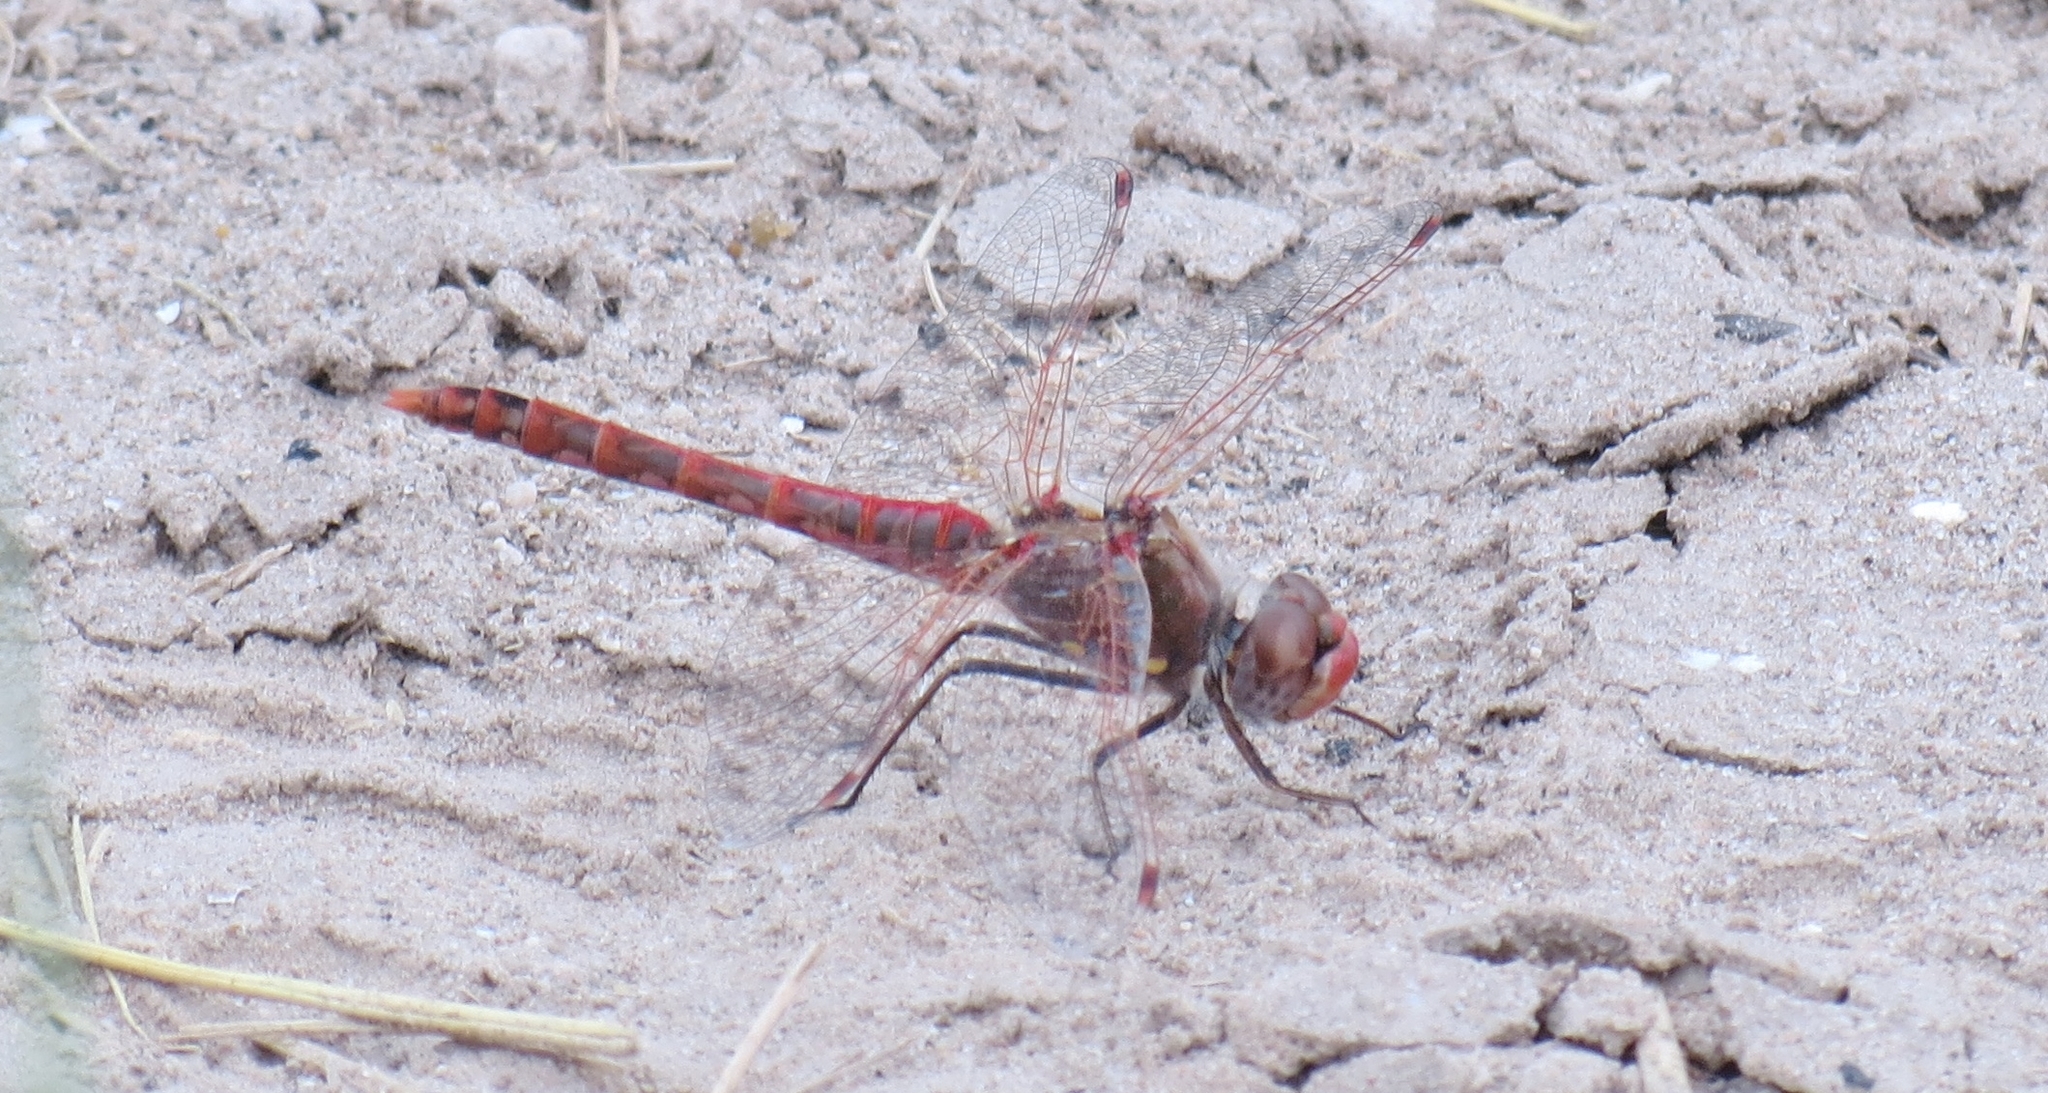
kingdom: Animalia
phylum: Arthropoda
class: Insecta
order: Odonata
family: Libellulidae
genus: Sympetrum
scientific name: Sympetrum corruptum
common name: Variegated meadowhawk
